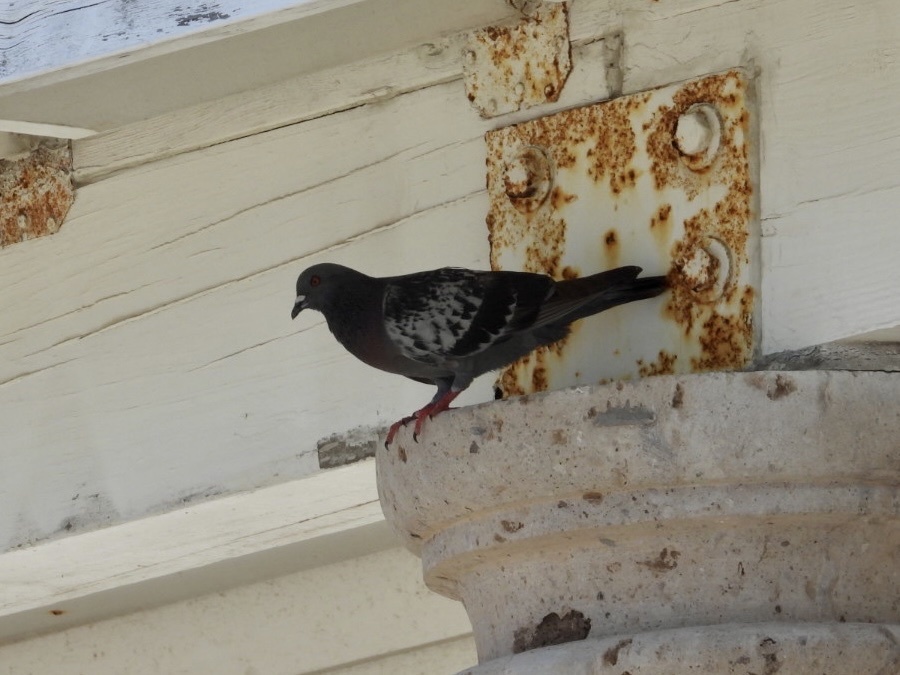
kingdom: Animalia
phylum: Chordata
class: Aves
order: Columbiformes
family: Columbidae
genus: Columba
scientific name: Columba livia
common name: Rock pigeon
